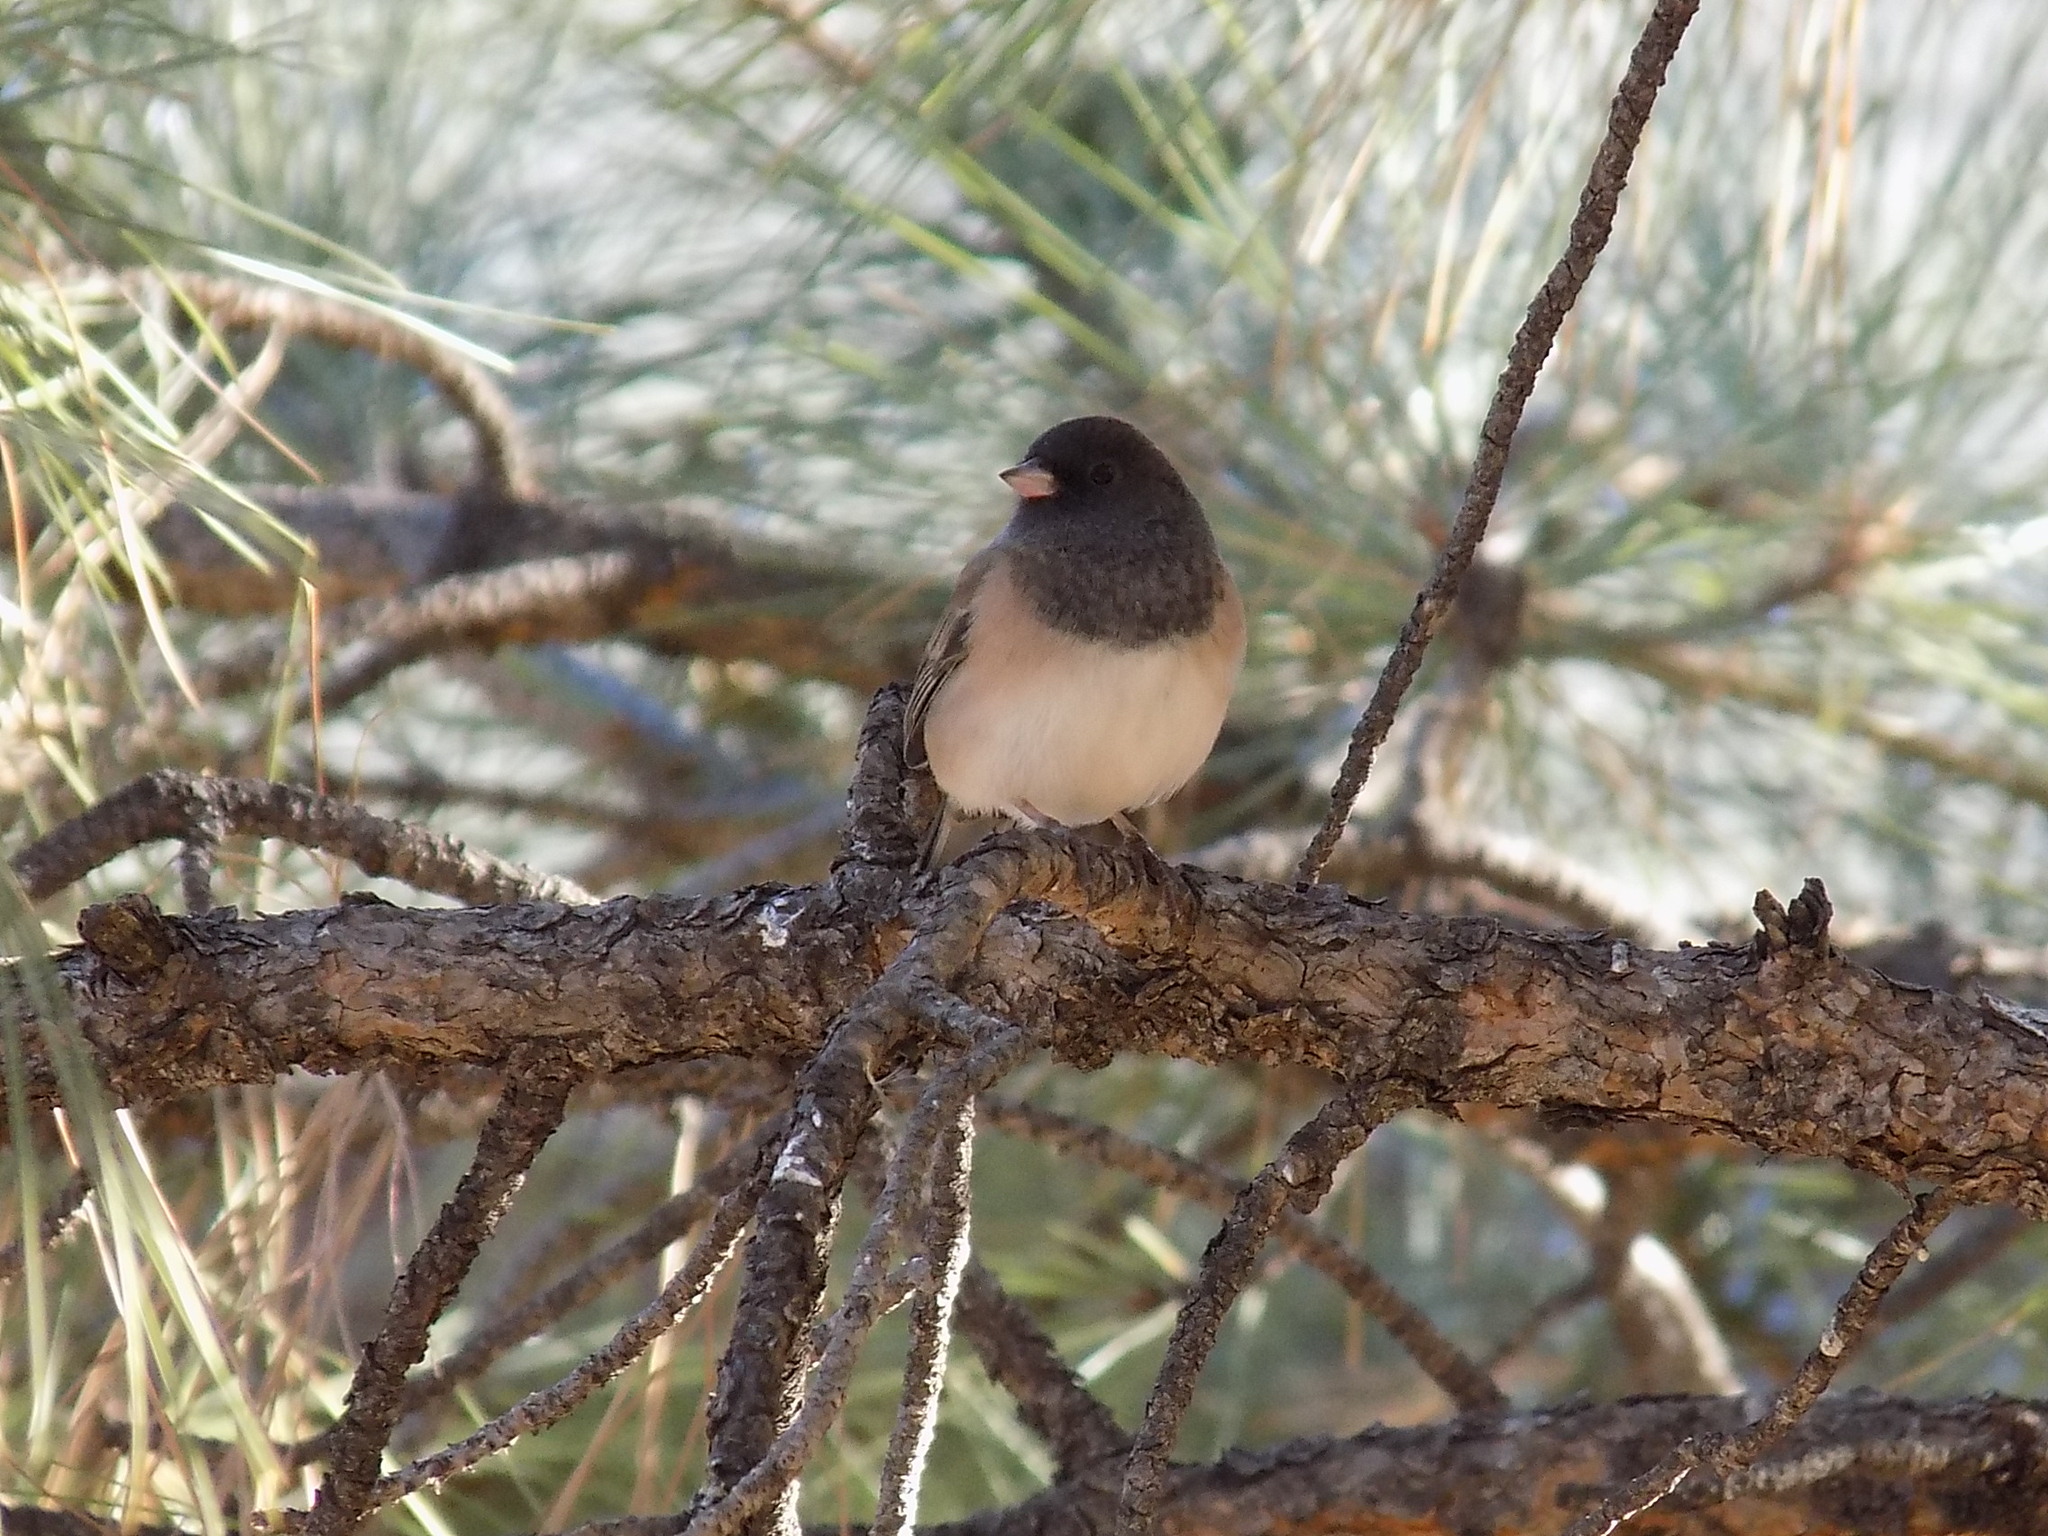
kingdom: Animalia
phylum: Chordata
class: Aves
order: Passeriformes
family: Passerellidae
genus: Junco
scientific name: Junco hyemalis
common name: Dark-eyed junco
